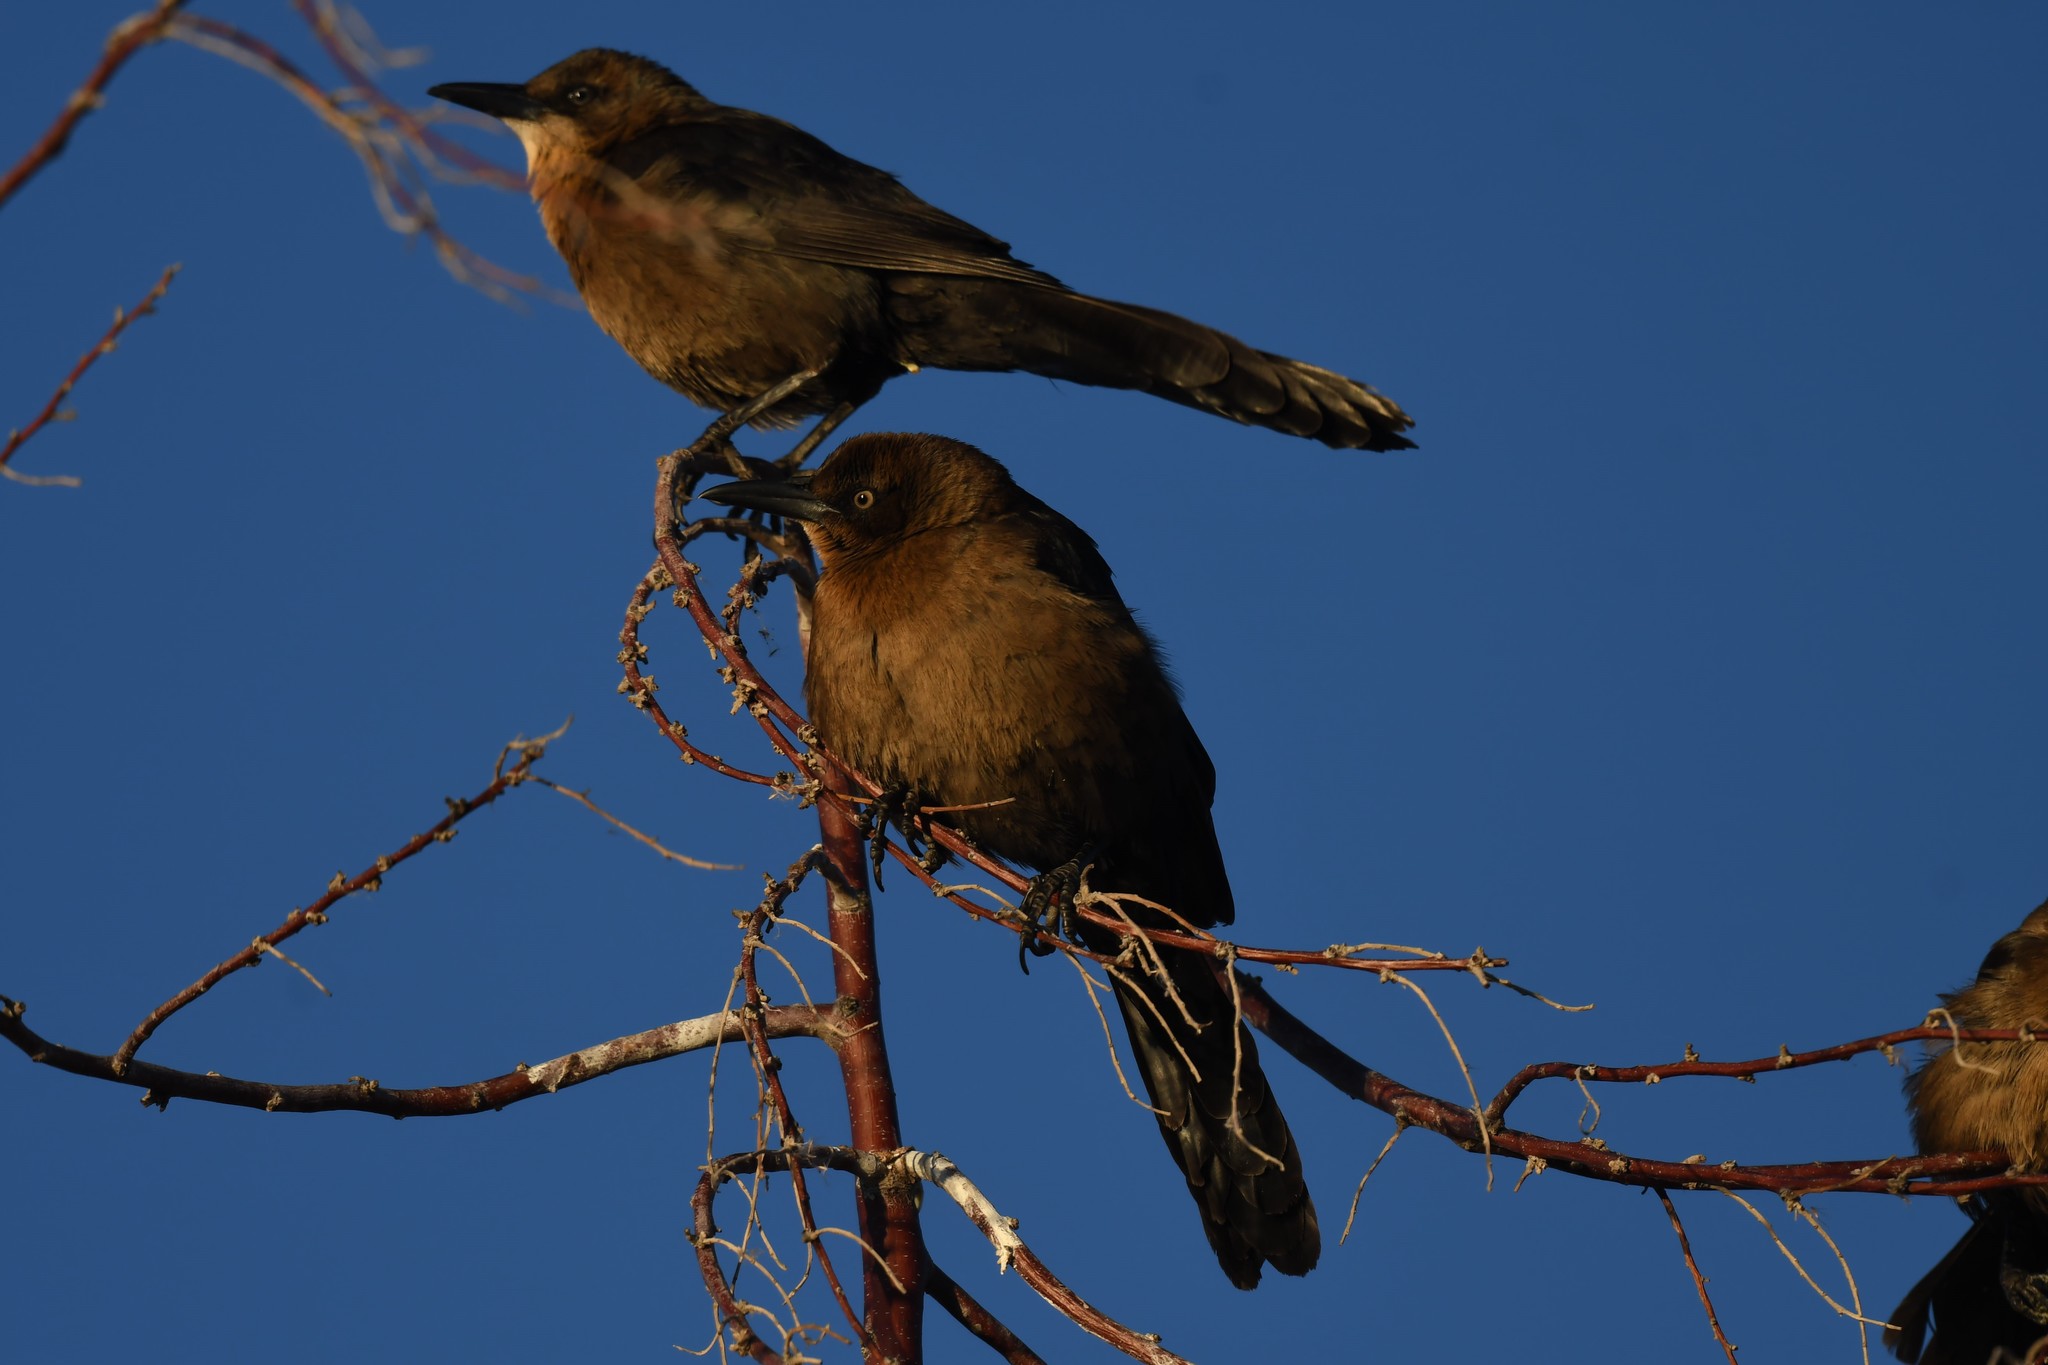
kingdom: Animalia
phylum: Chordata
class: Aves
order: Passeriformes
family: Icteridae
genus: Quiscalus
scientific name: Quiscalus mexicanus
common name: Great-tailed grackle
